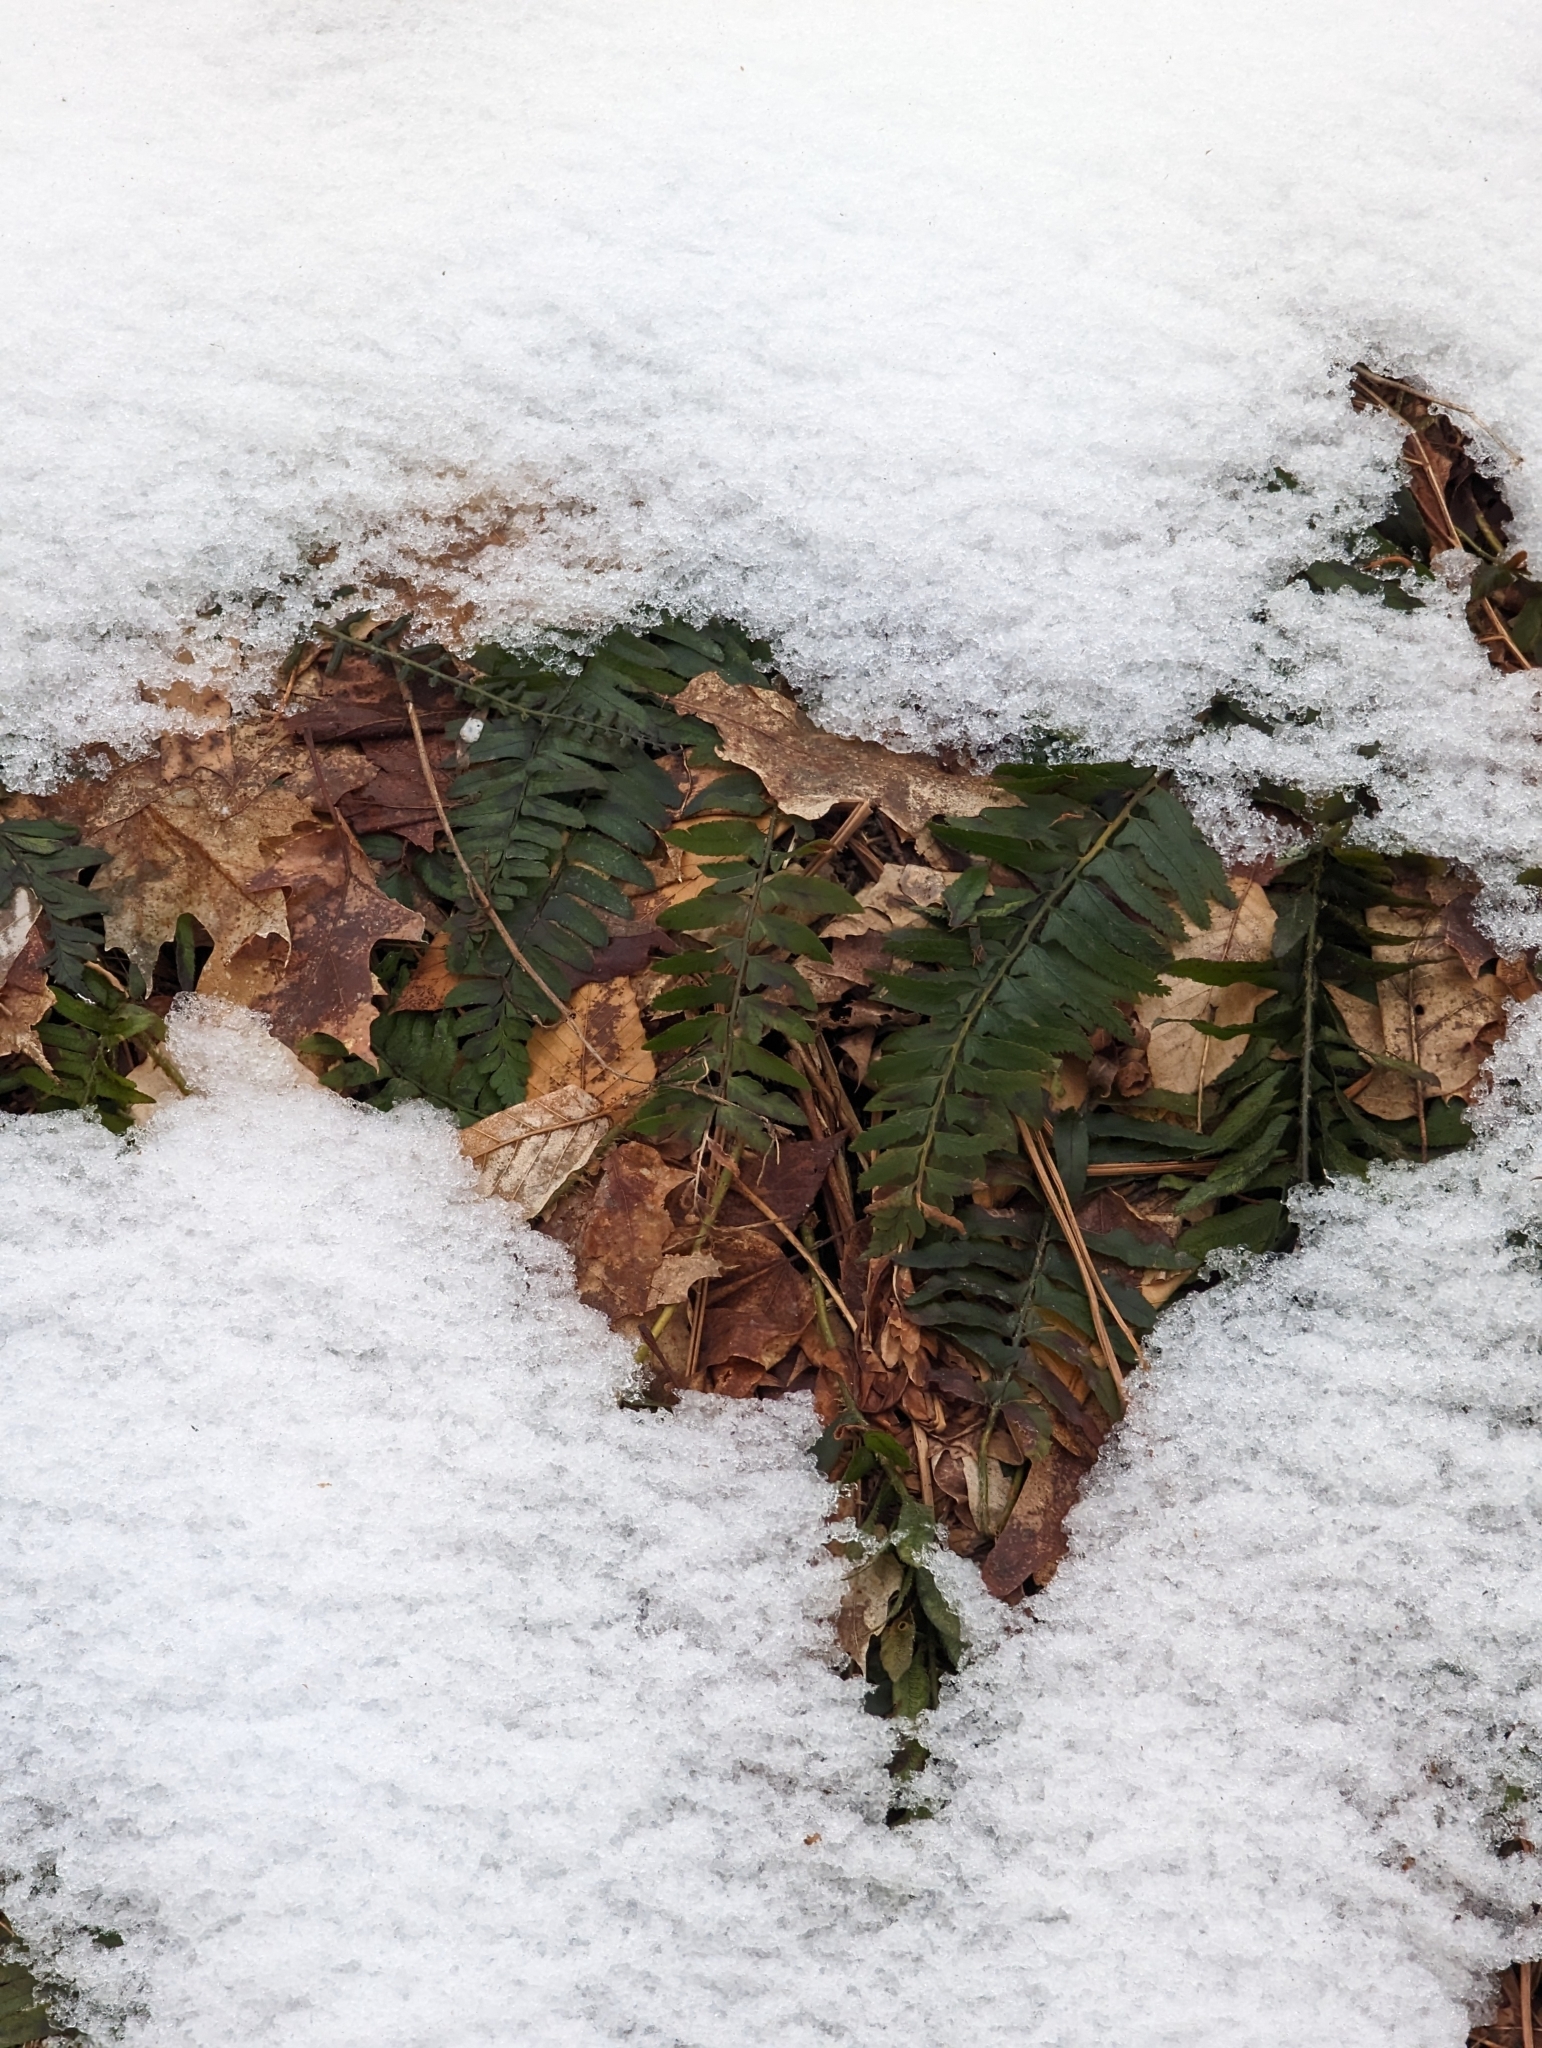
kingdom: Plantae
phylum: Tracheophyta
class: Polypodiopsida
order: Polypodiales
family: Dryopteridaceae
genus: Polystichum
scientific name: Polystichum acrostichoides
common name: Christmas fern
